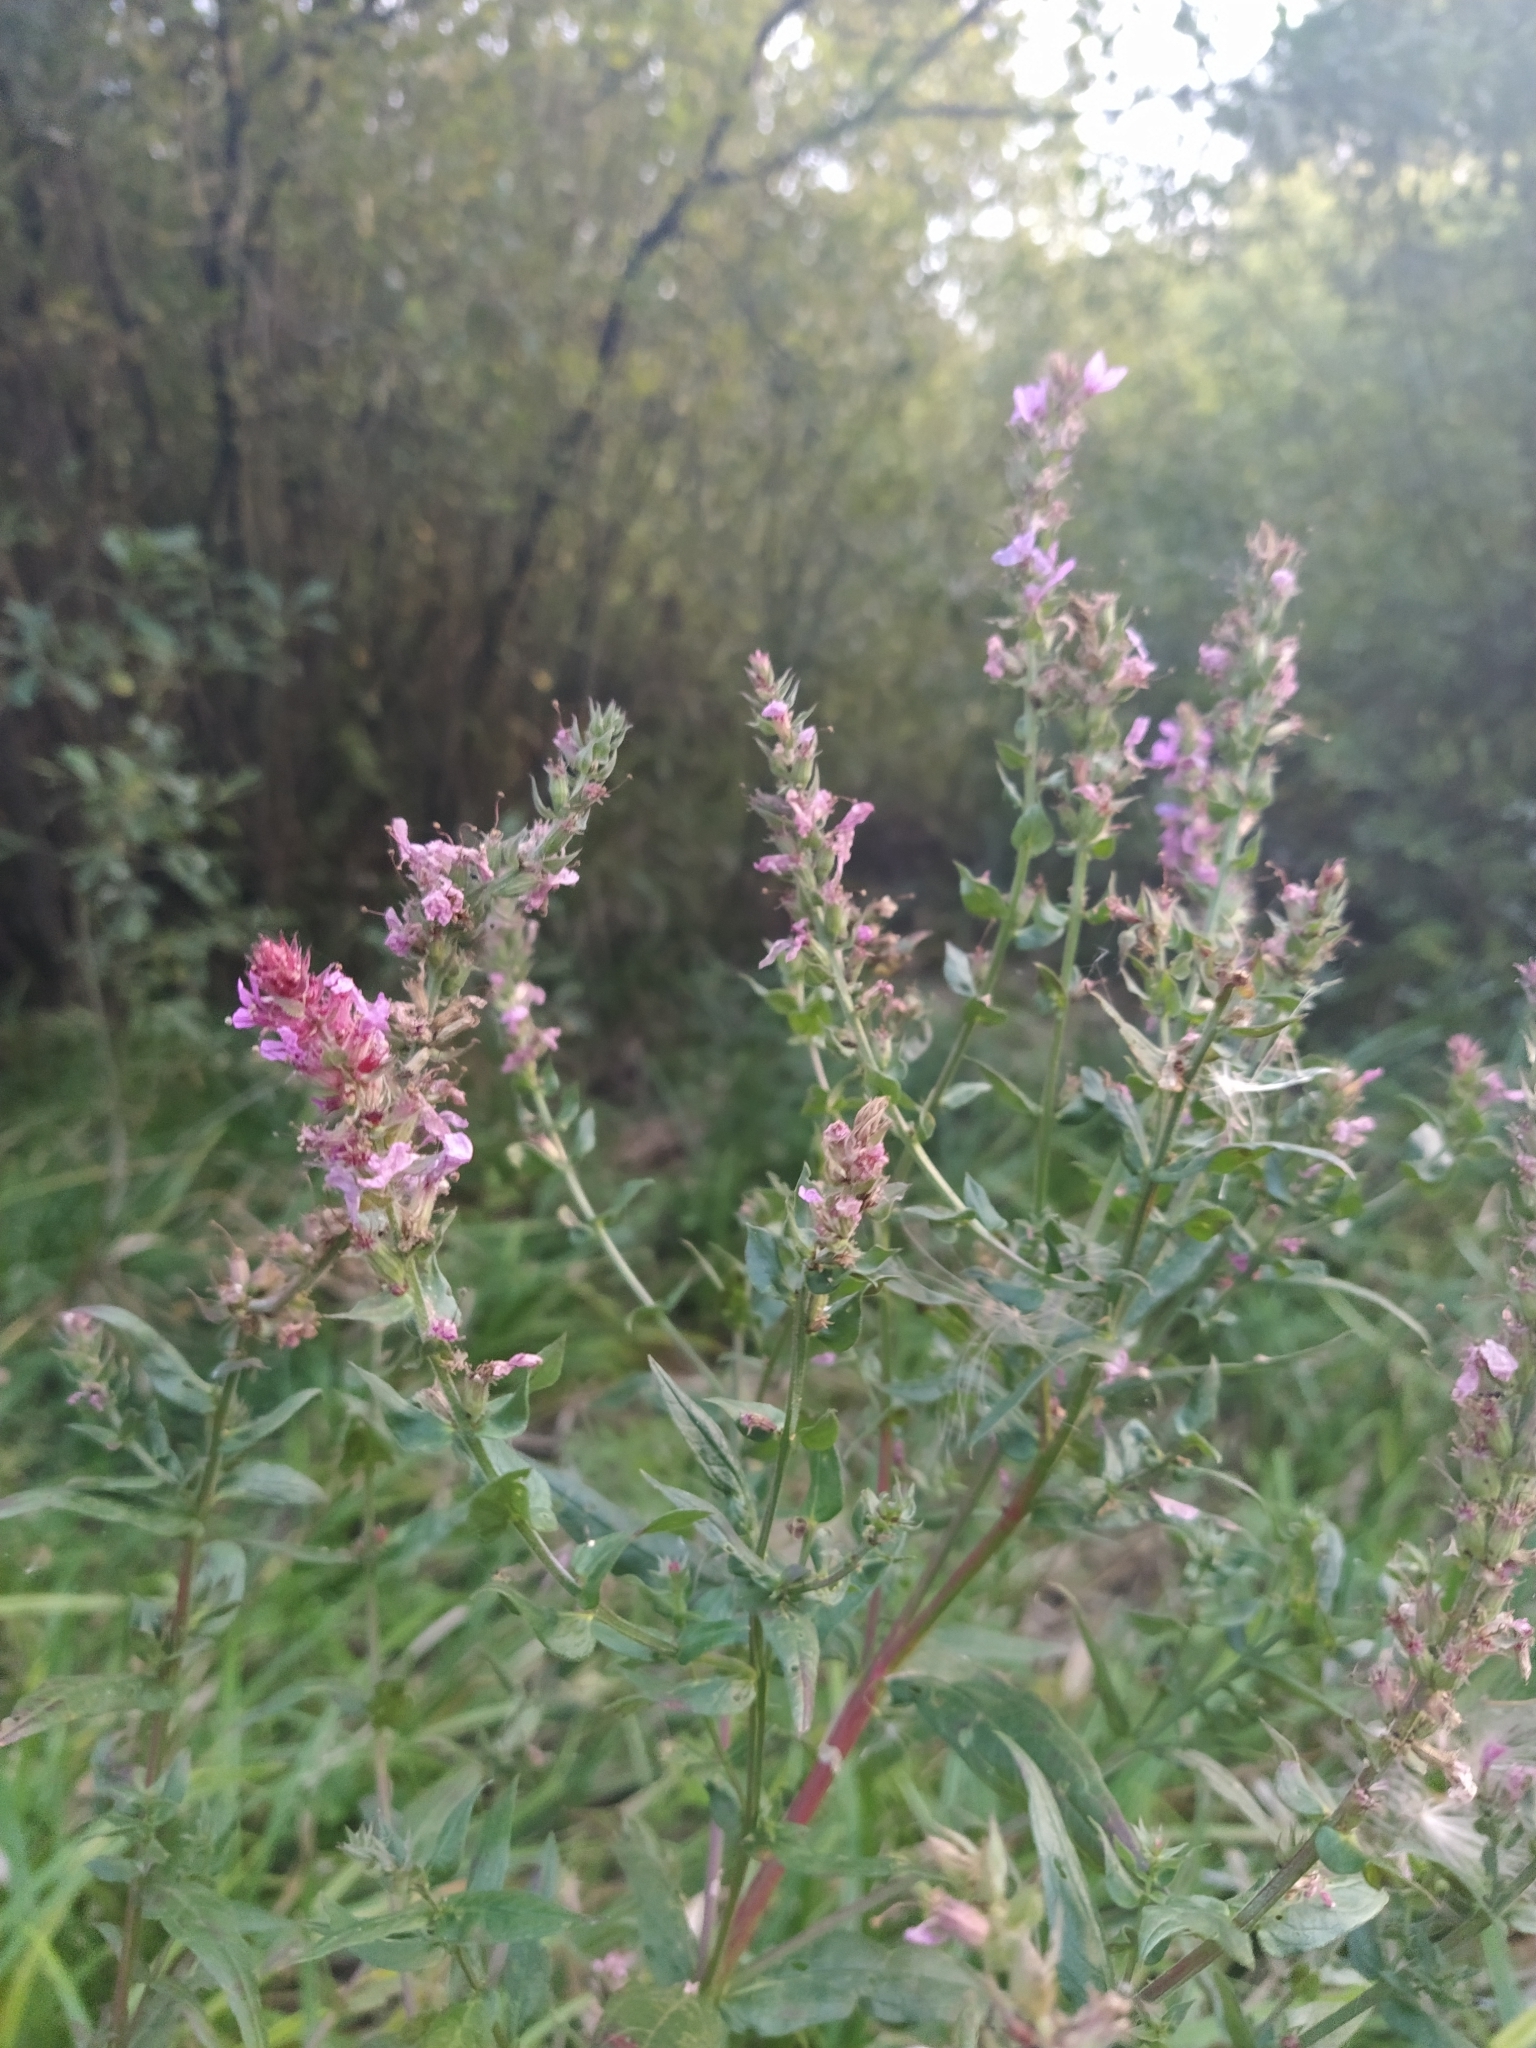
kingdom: Plantae
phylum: Tracheophyta
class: Magnoliopsida
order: Myrtales
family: Lythraceae
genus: Lythrum
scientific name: Lythrum salicaria
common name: Purple loosestrife
